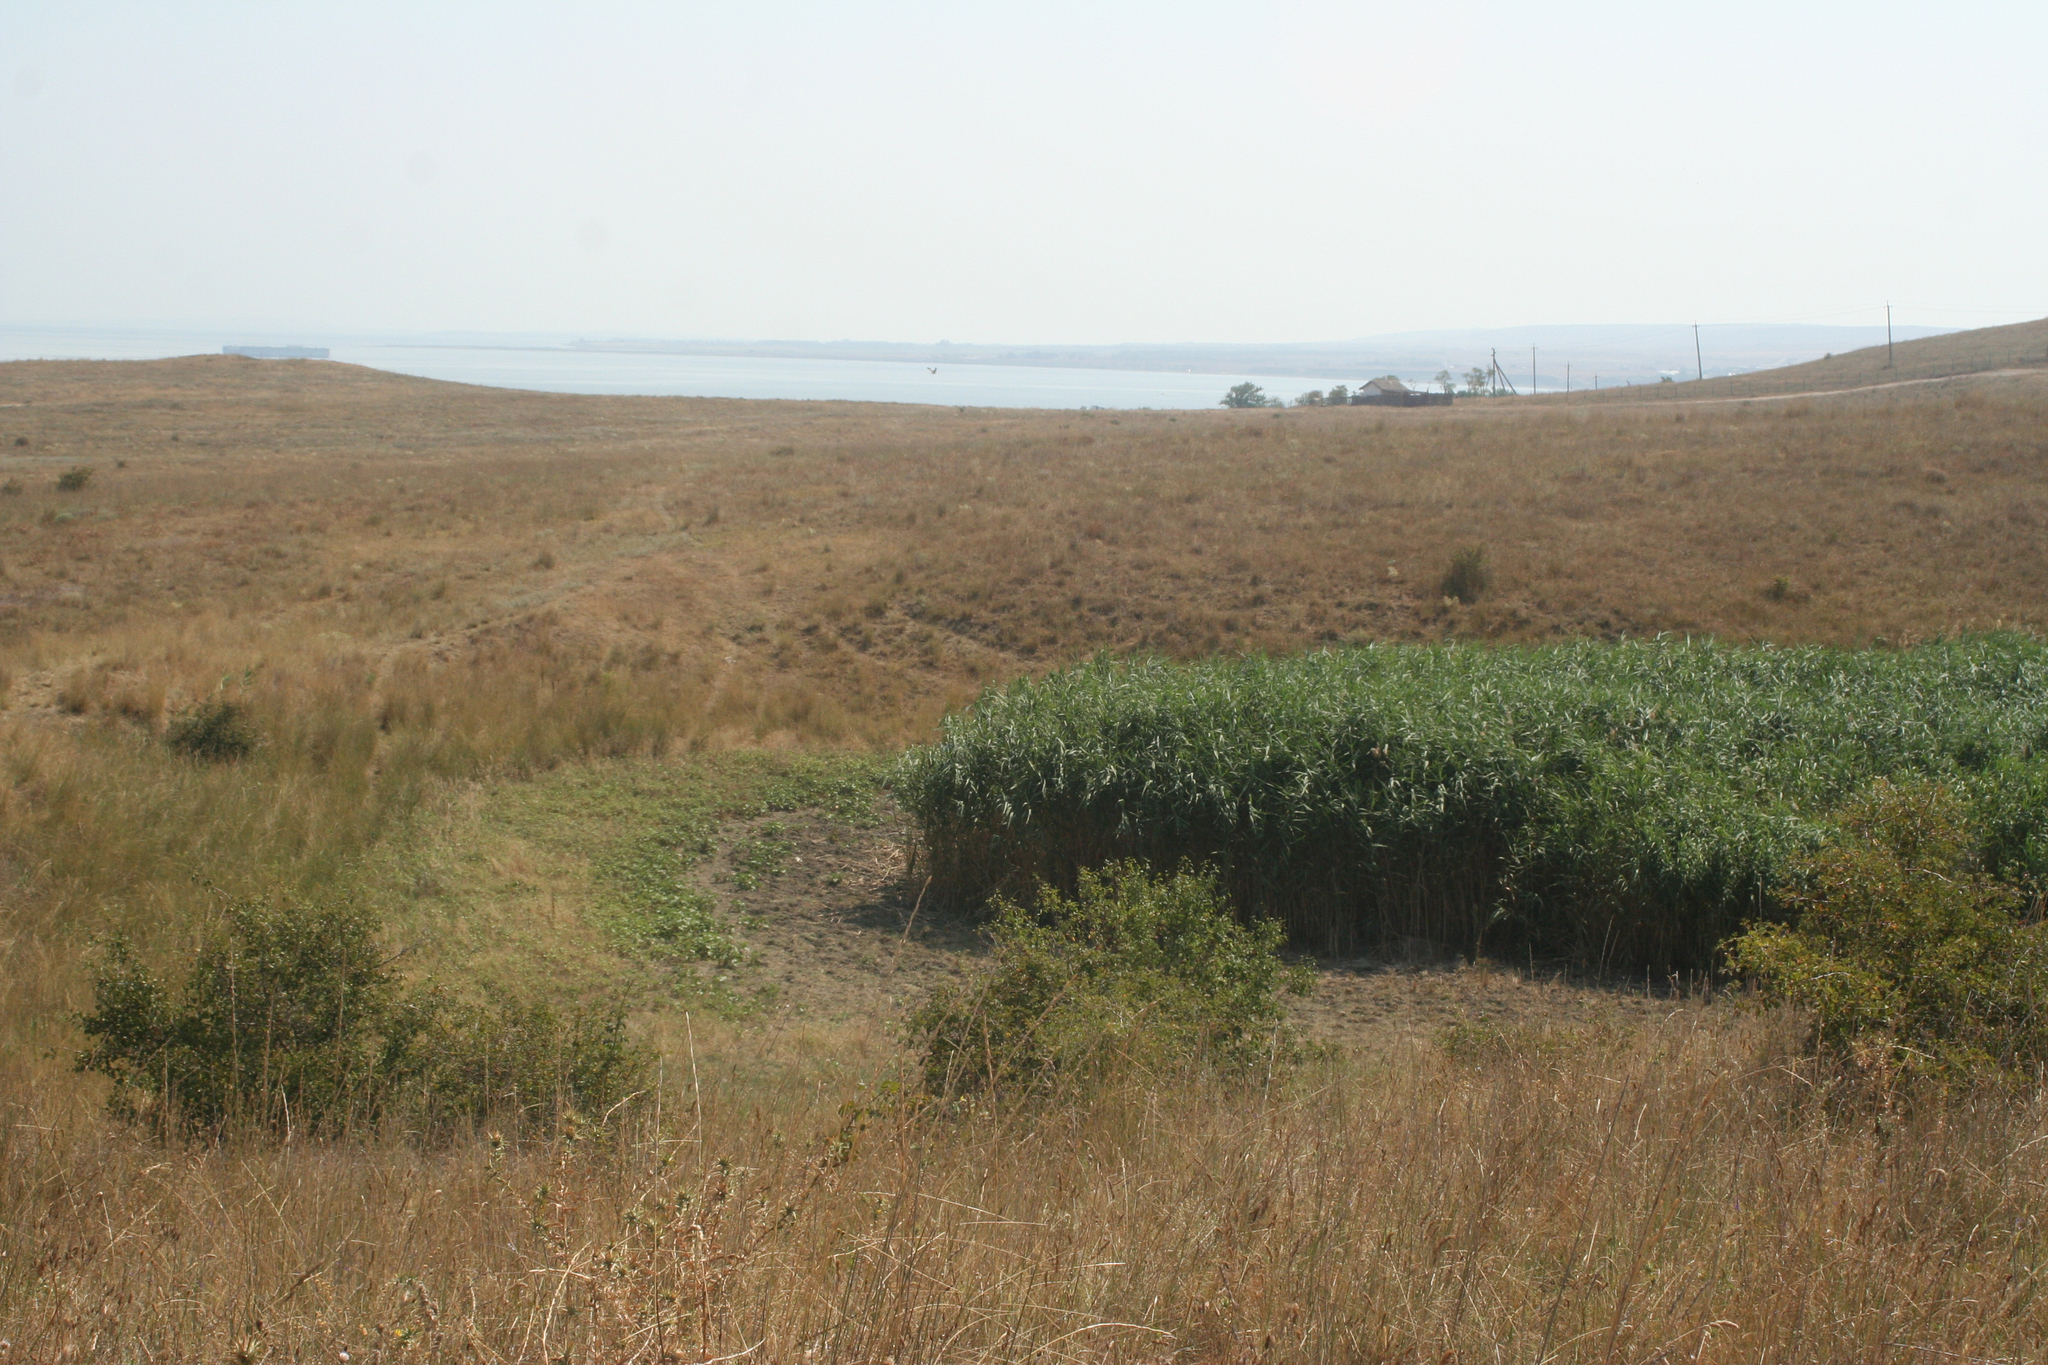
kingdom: Plantae
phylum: Tracheophyta
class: Liliopsida
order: Poales
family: Poaceae
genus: Phragmites
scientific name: Phragmites australis
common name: Common reed
